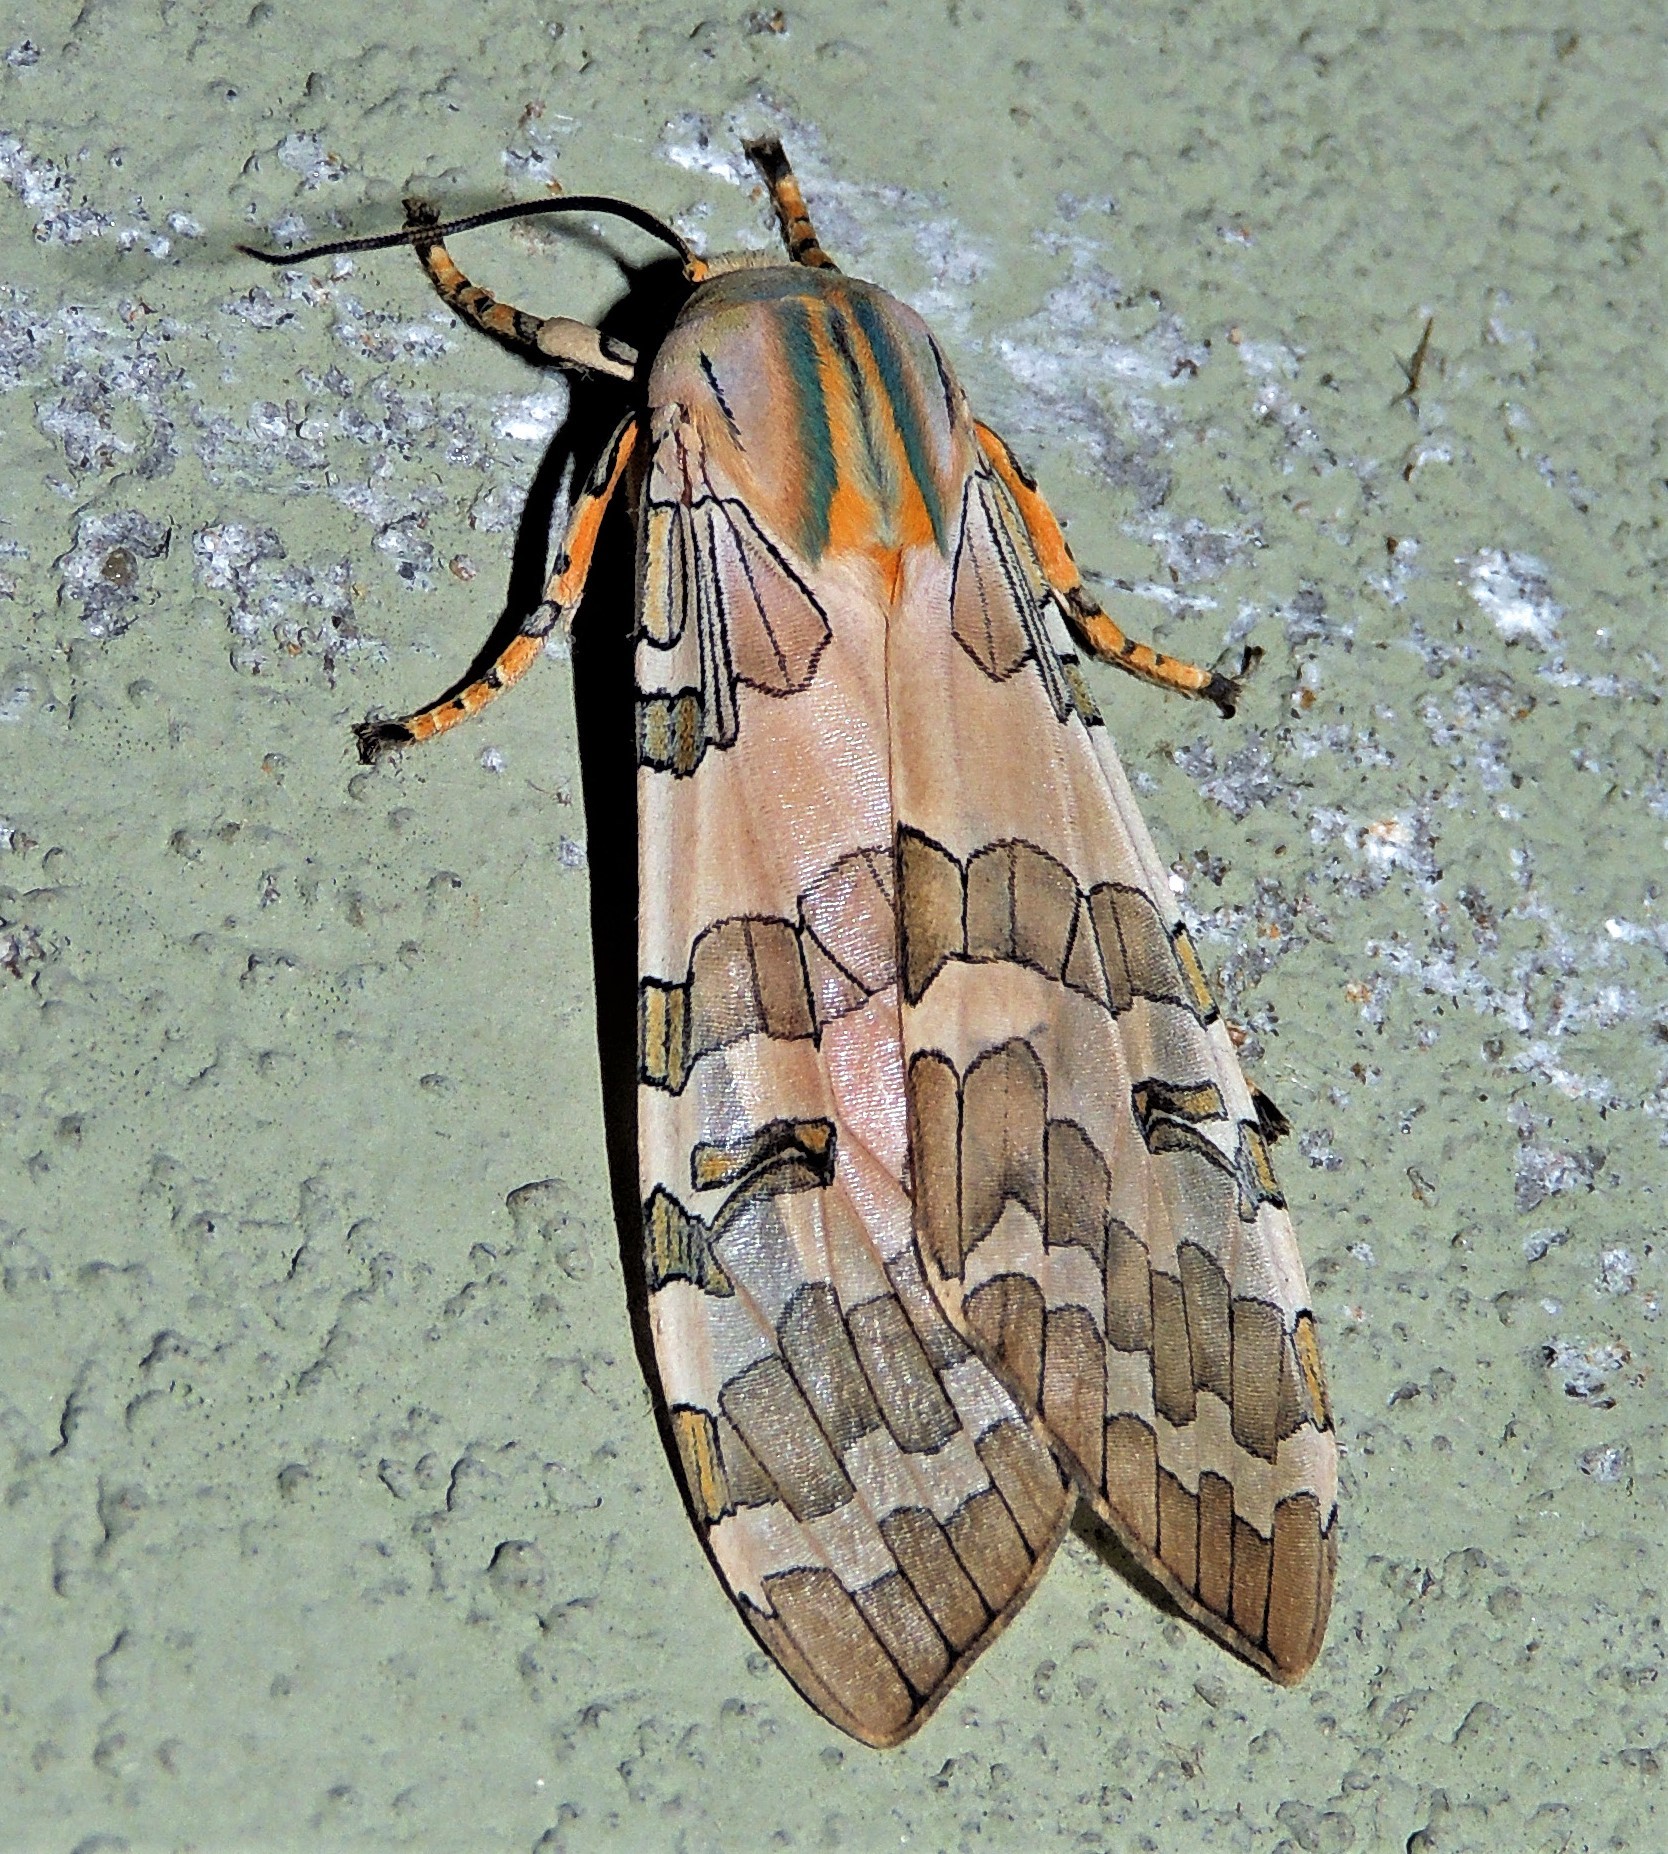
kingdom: Animalia
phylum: Arthropoda
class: Insecta
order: Lepidoptera
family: Erebidae
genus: Halysidota
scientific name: Halysidota brasiliensis
